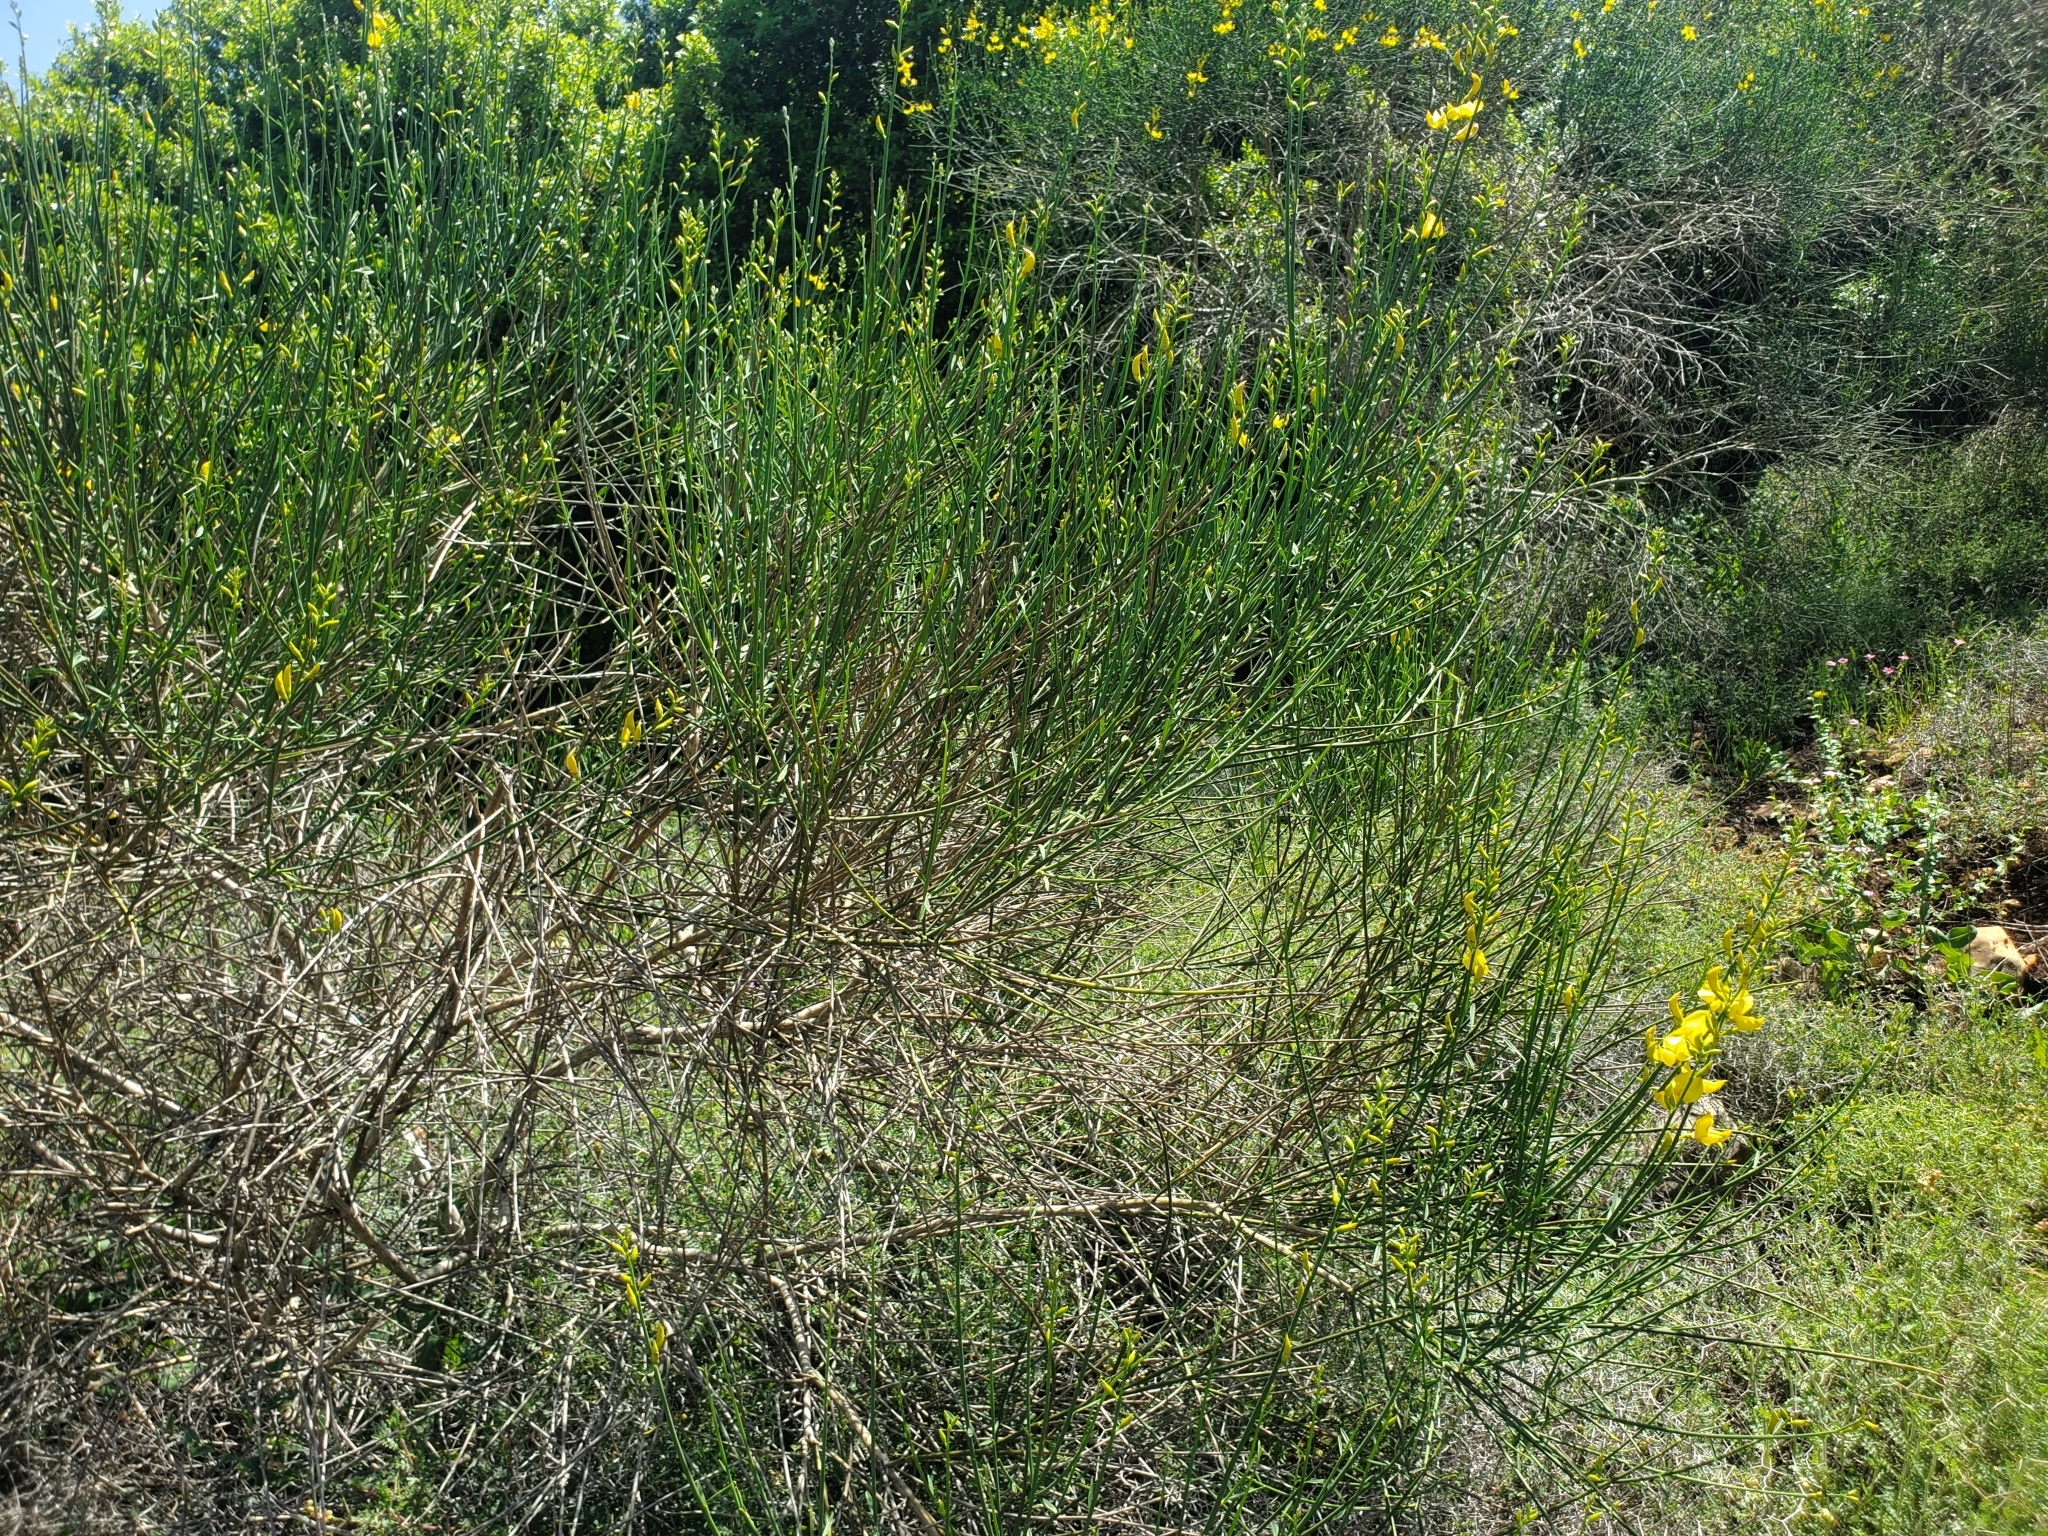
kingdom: Plantae
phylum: Tracheophyta
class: Magnoliopsida
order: Fabales
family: Fabaceae
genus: Spartium
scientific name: Spartium junceum
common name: Spanish broom
